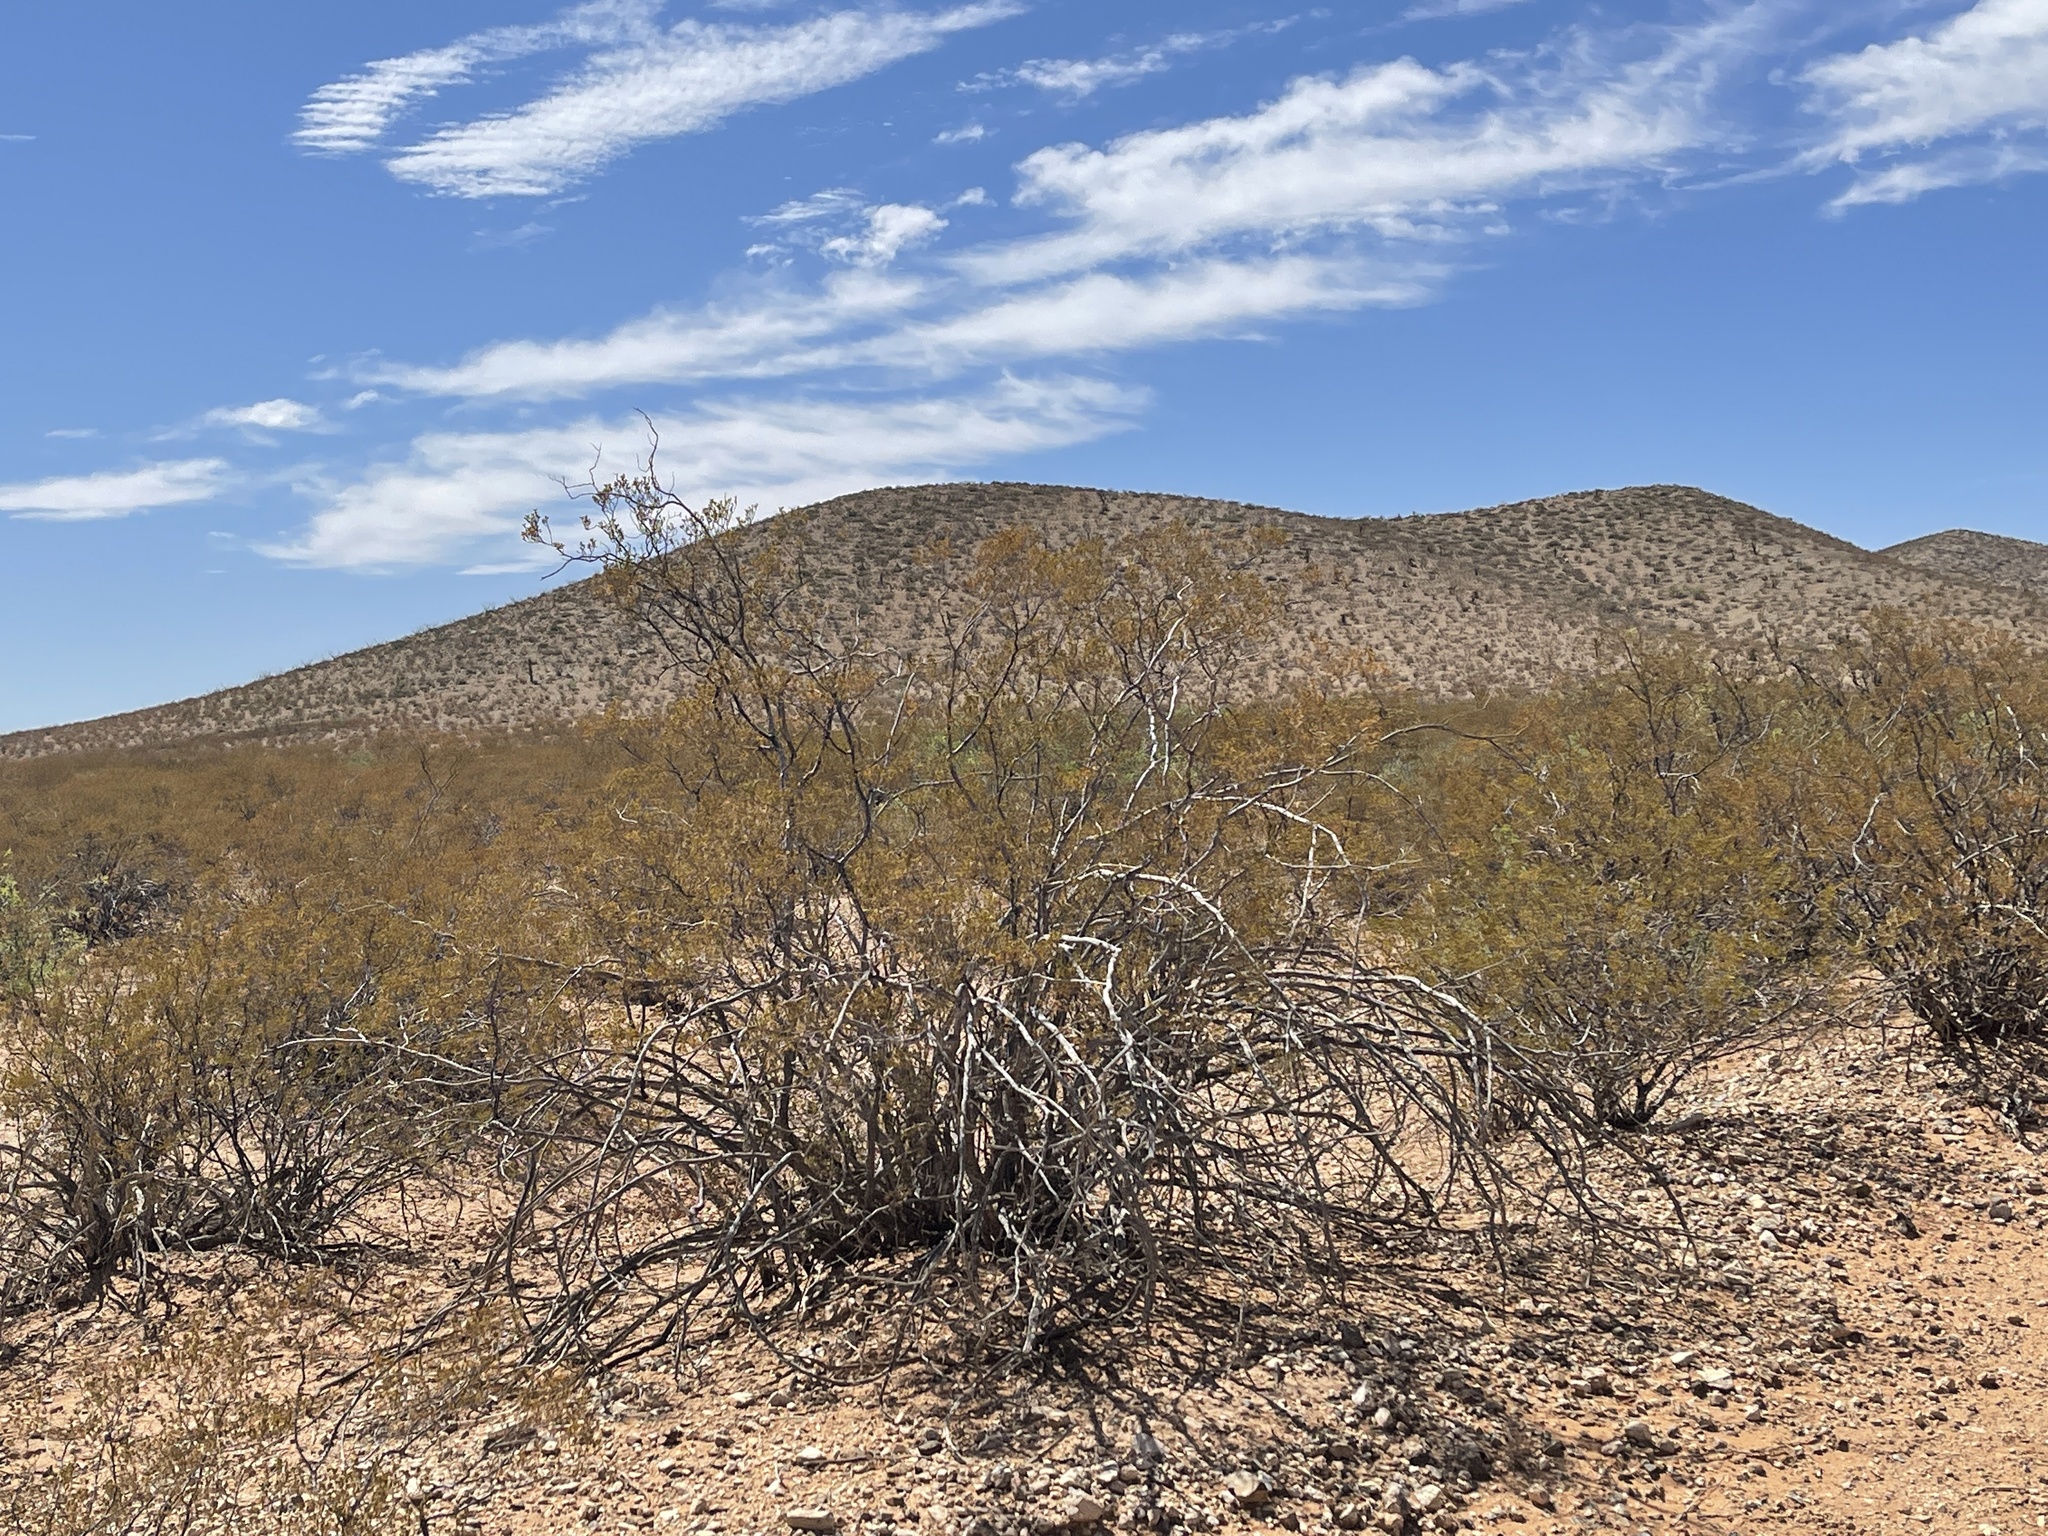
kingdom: Plantae
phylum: Tracheophyta
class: Magnoliopsida
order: Zygophyllales
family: Zygophyllaceae
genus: Larrea
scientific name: Larrea tridentata
